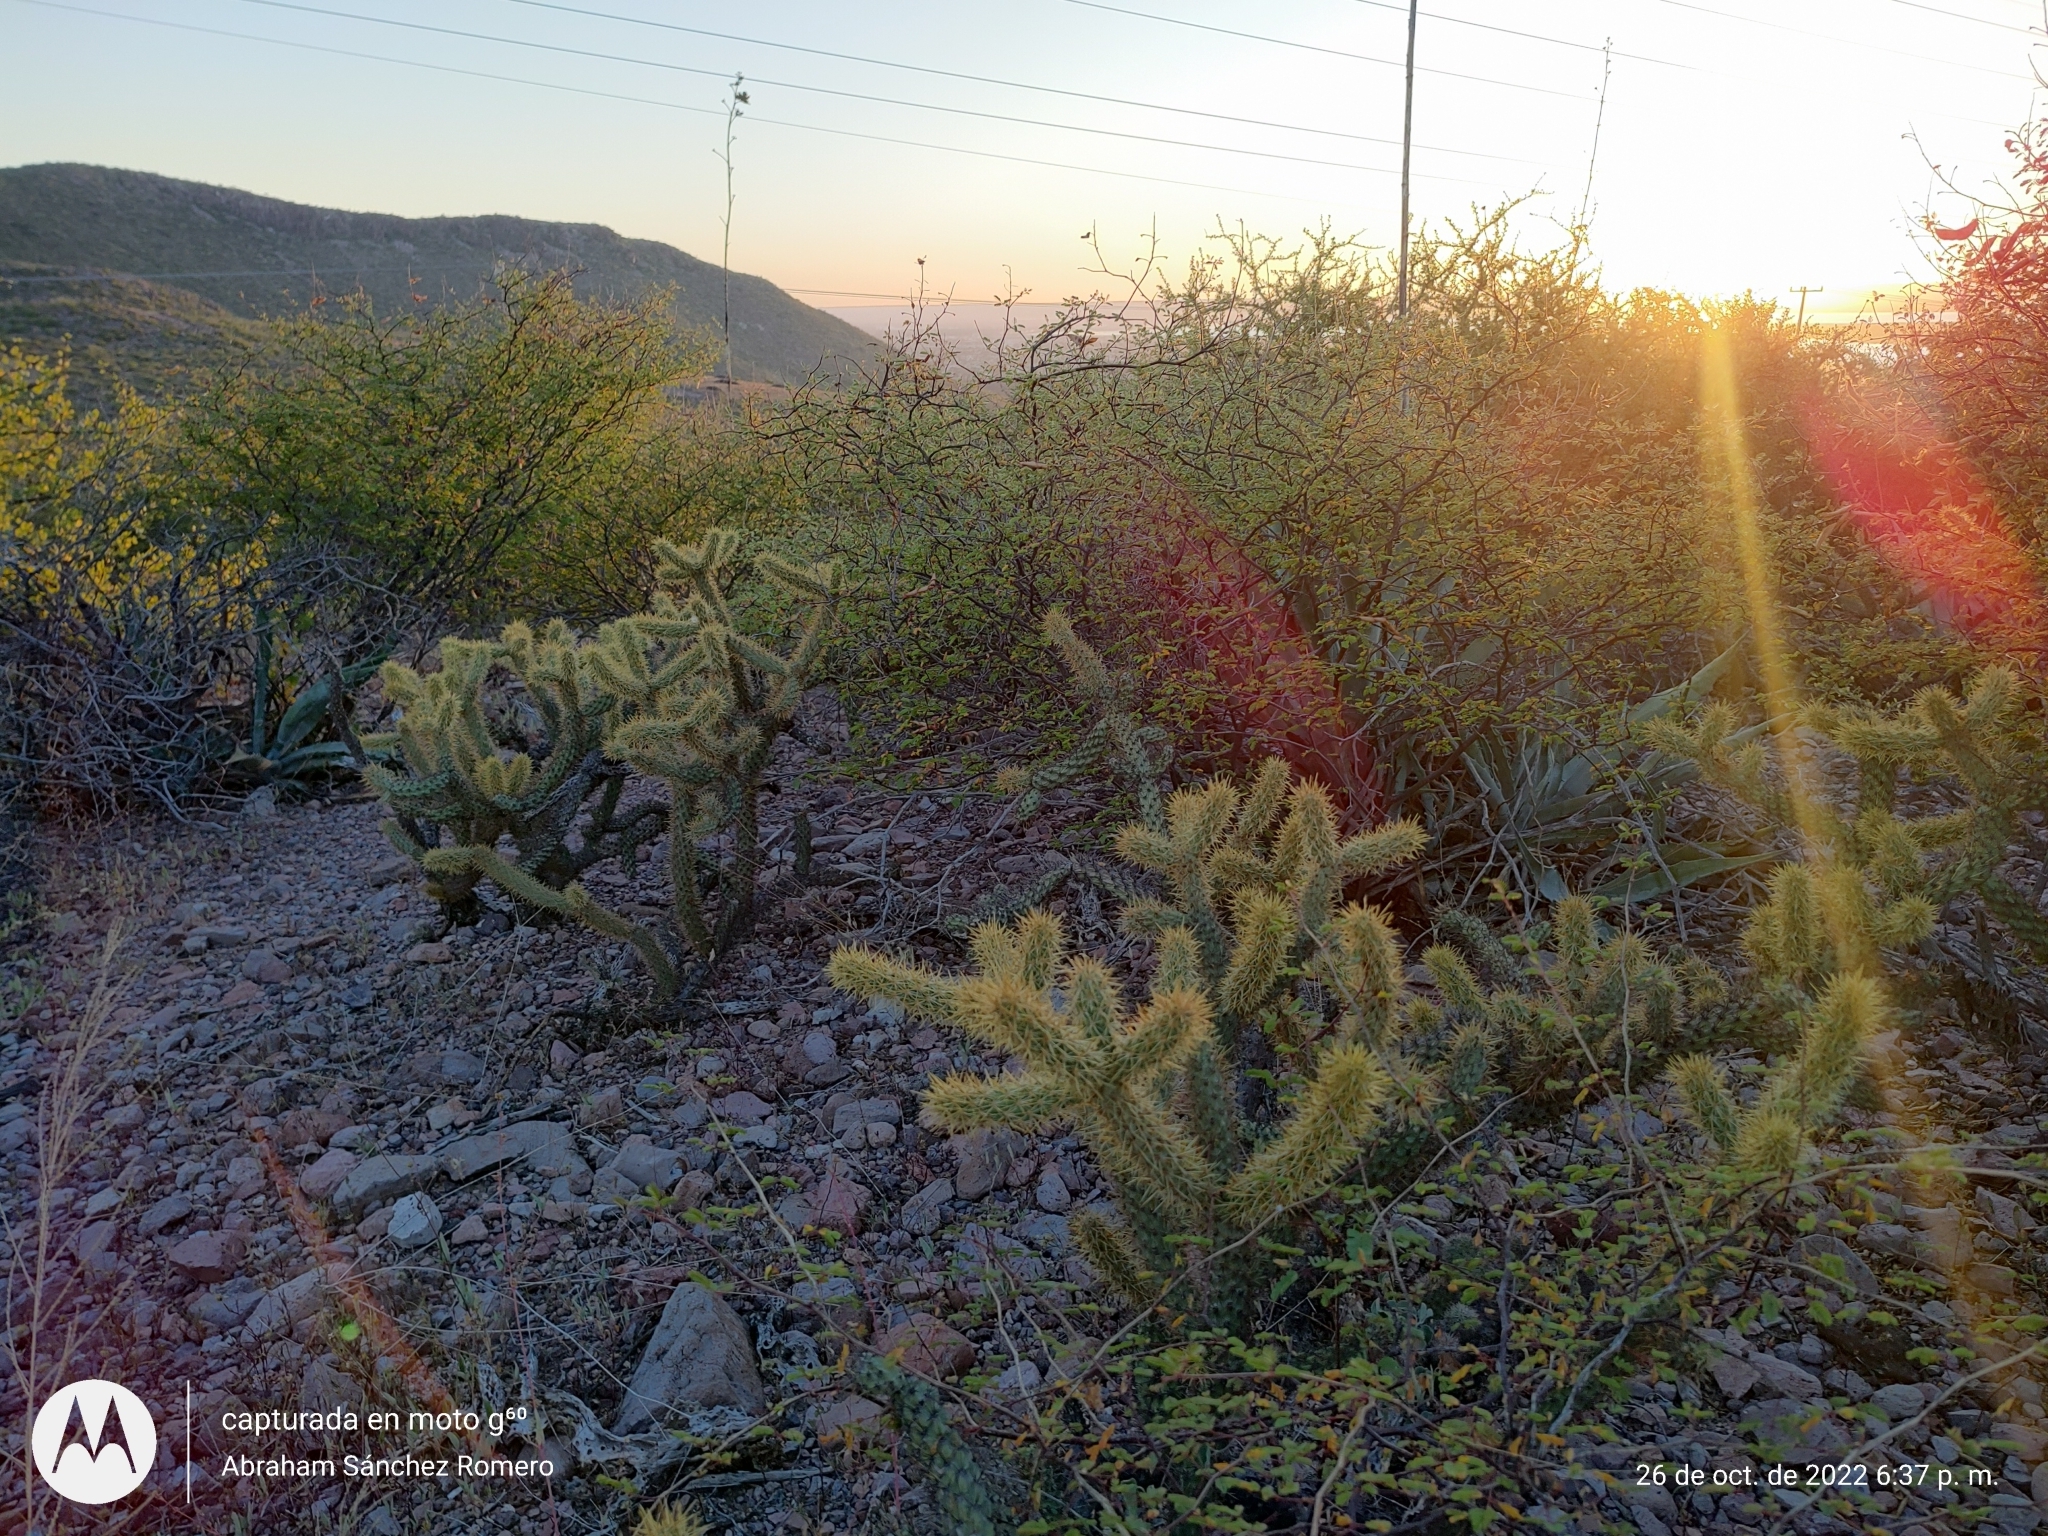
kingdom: Plantae
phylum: Tracheophyta
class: Magnoliopsida
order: Caryophyllales
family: Cactaceae
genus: Cylindropuntia
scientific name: Cylindropuntia alcahes
